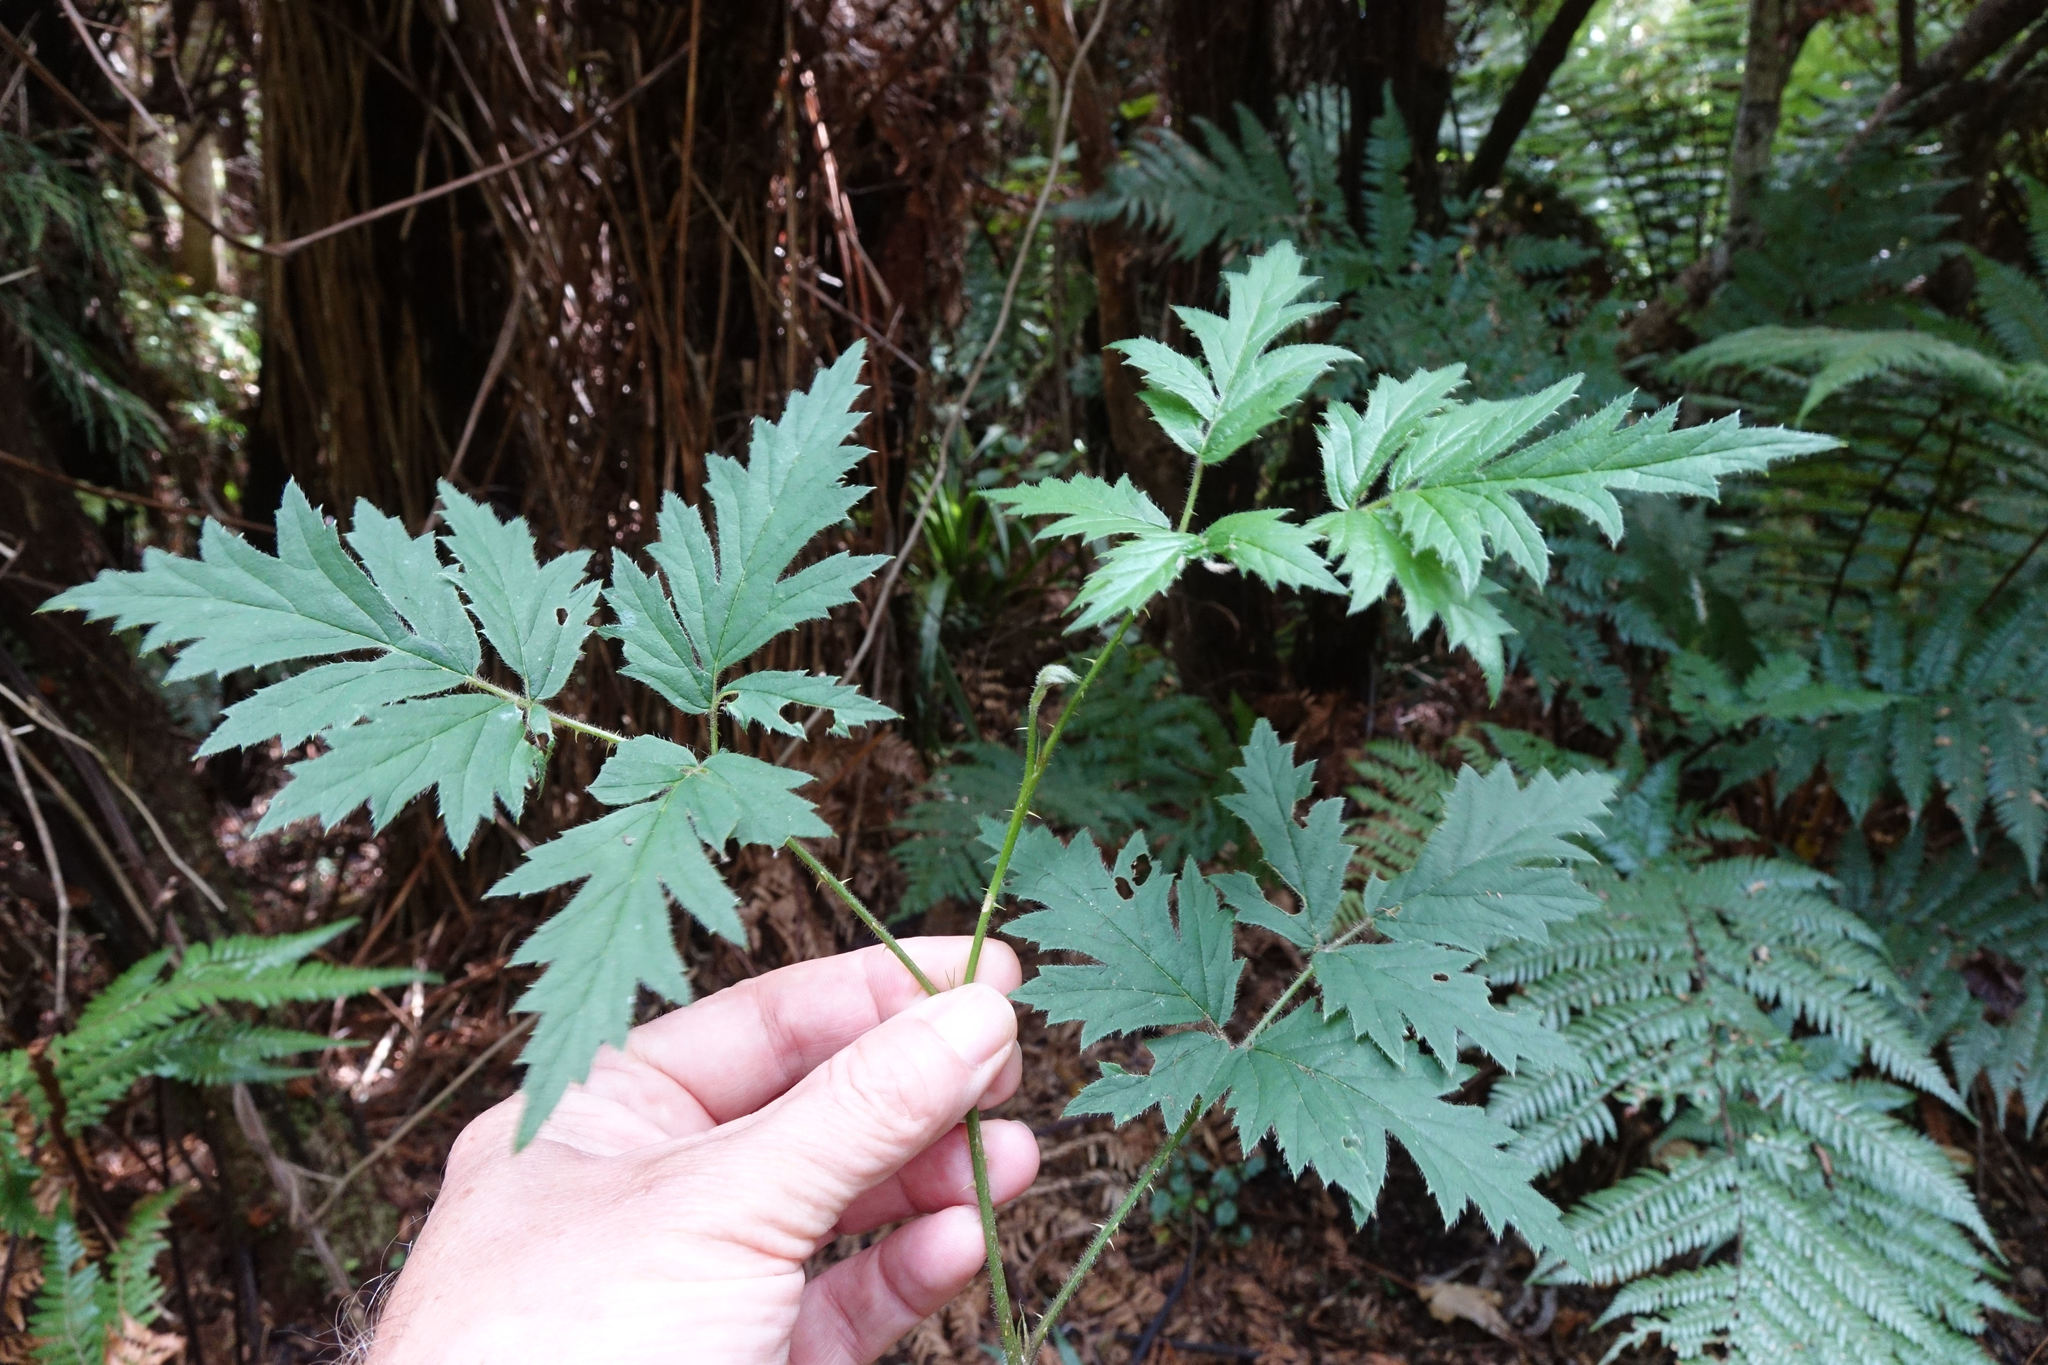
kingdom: Plantae
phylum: Tracheophyta
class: Magnoliopsida
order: Rosales
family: Rosaceae
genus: Rubus
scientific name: Rubus laciniatus
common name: Evergreen blackberry
